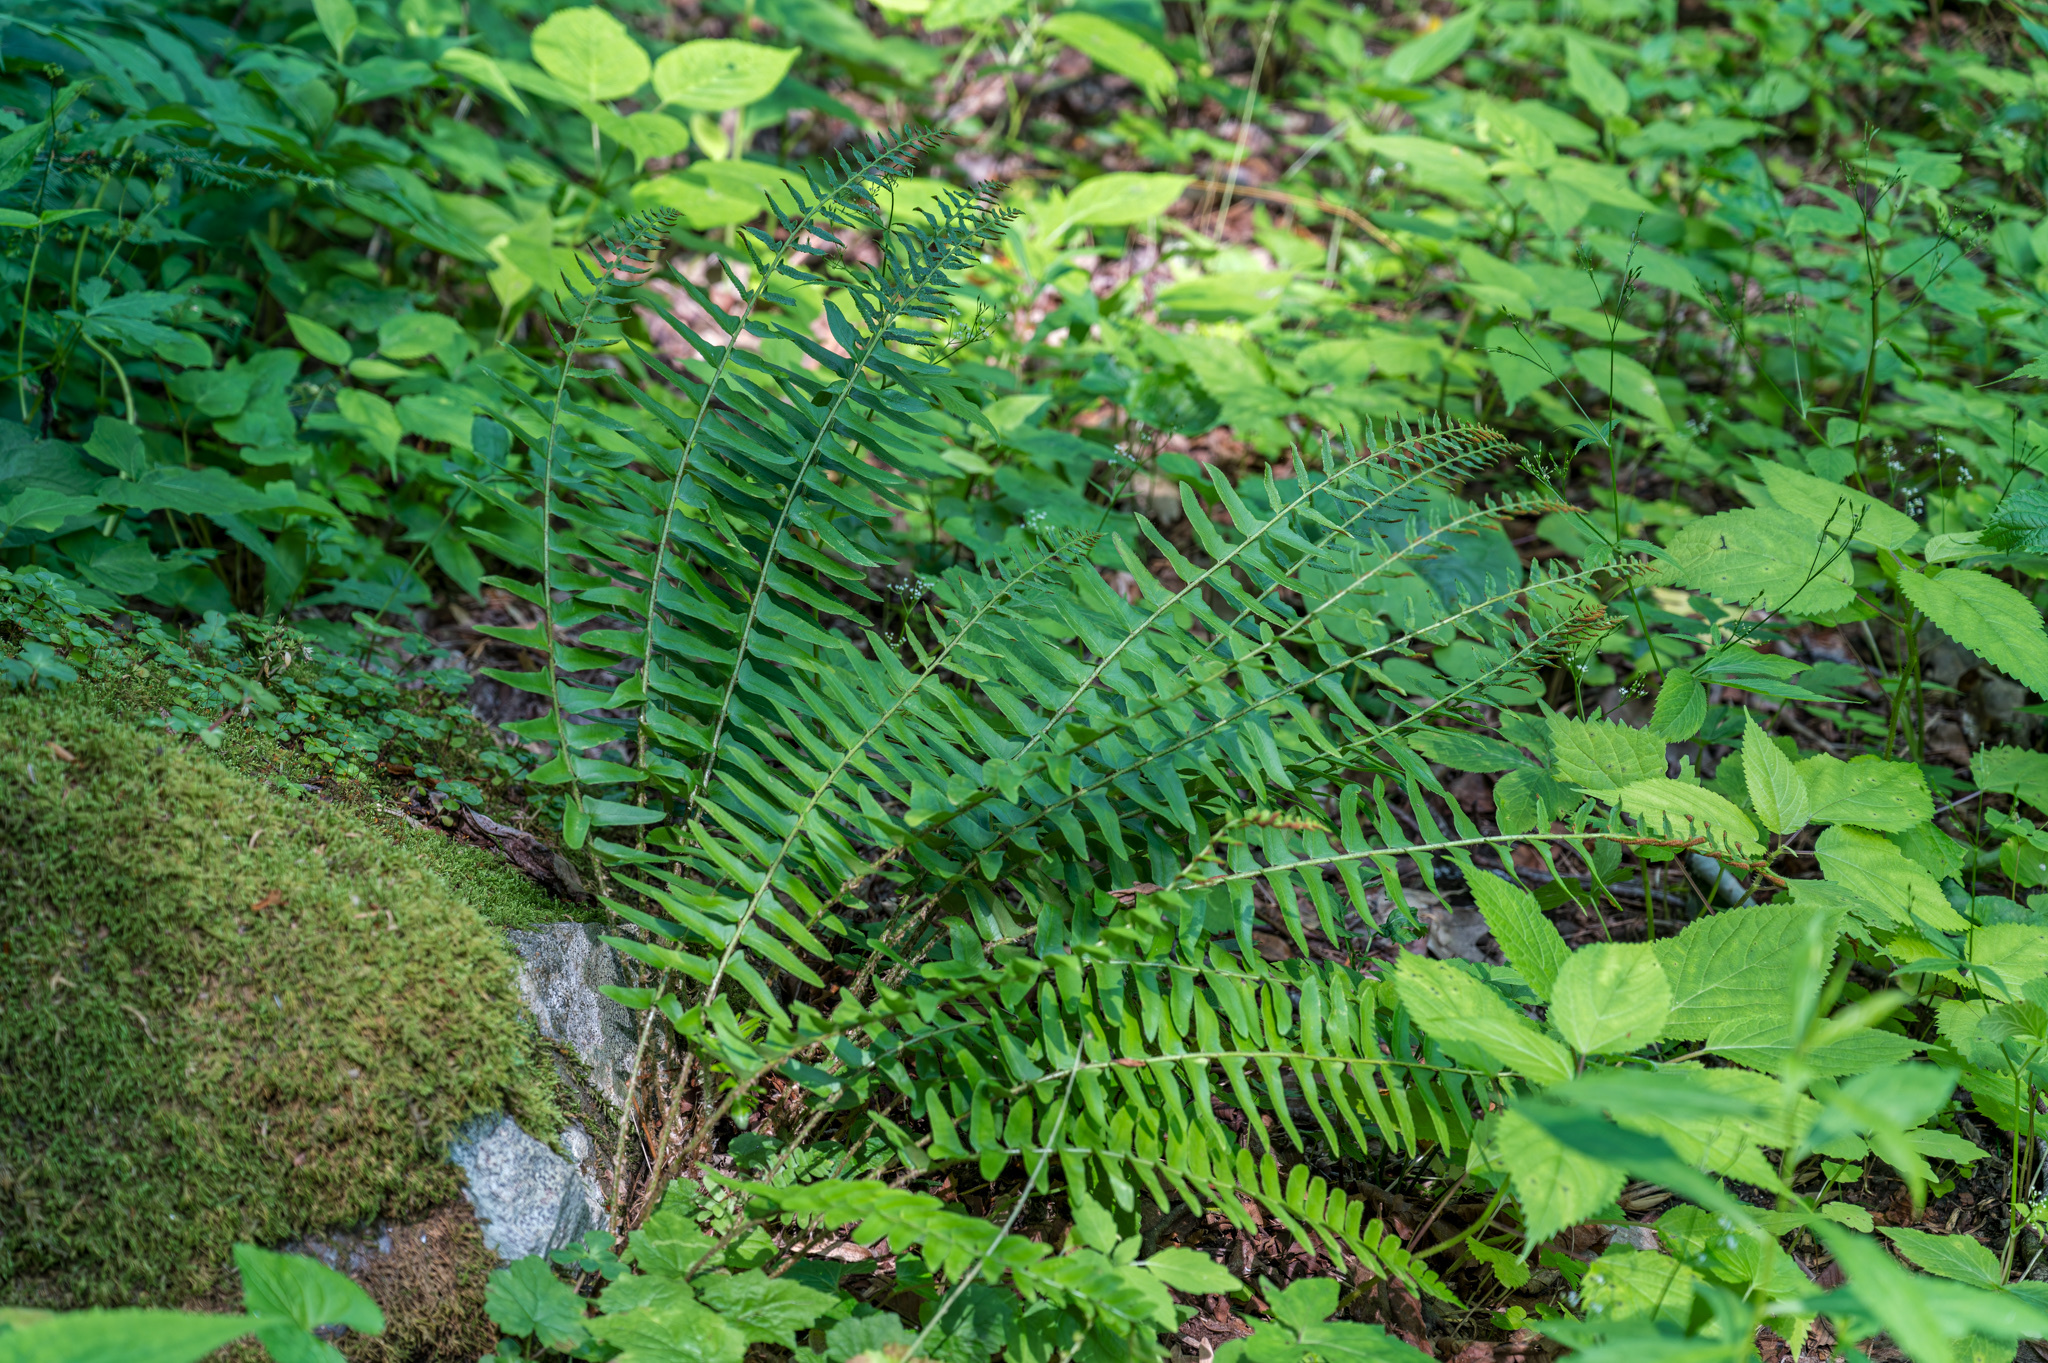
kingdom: Plantae
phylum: Tracheophyta
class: Polypodiopsida
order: Polypodiales
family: Dryopteridaceae
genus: Polystichum
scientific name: Polystichum acrostichoides
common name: Christmas fern
